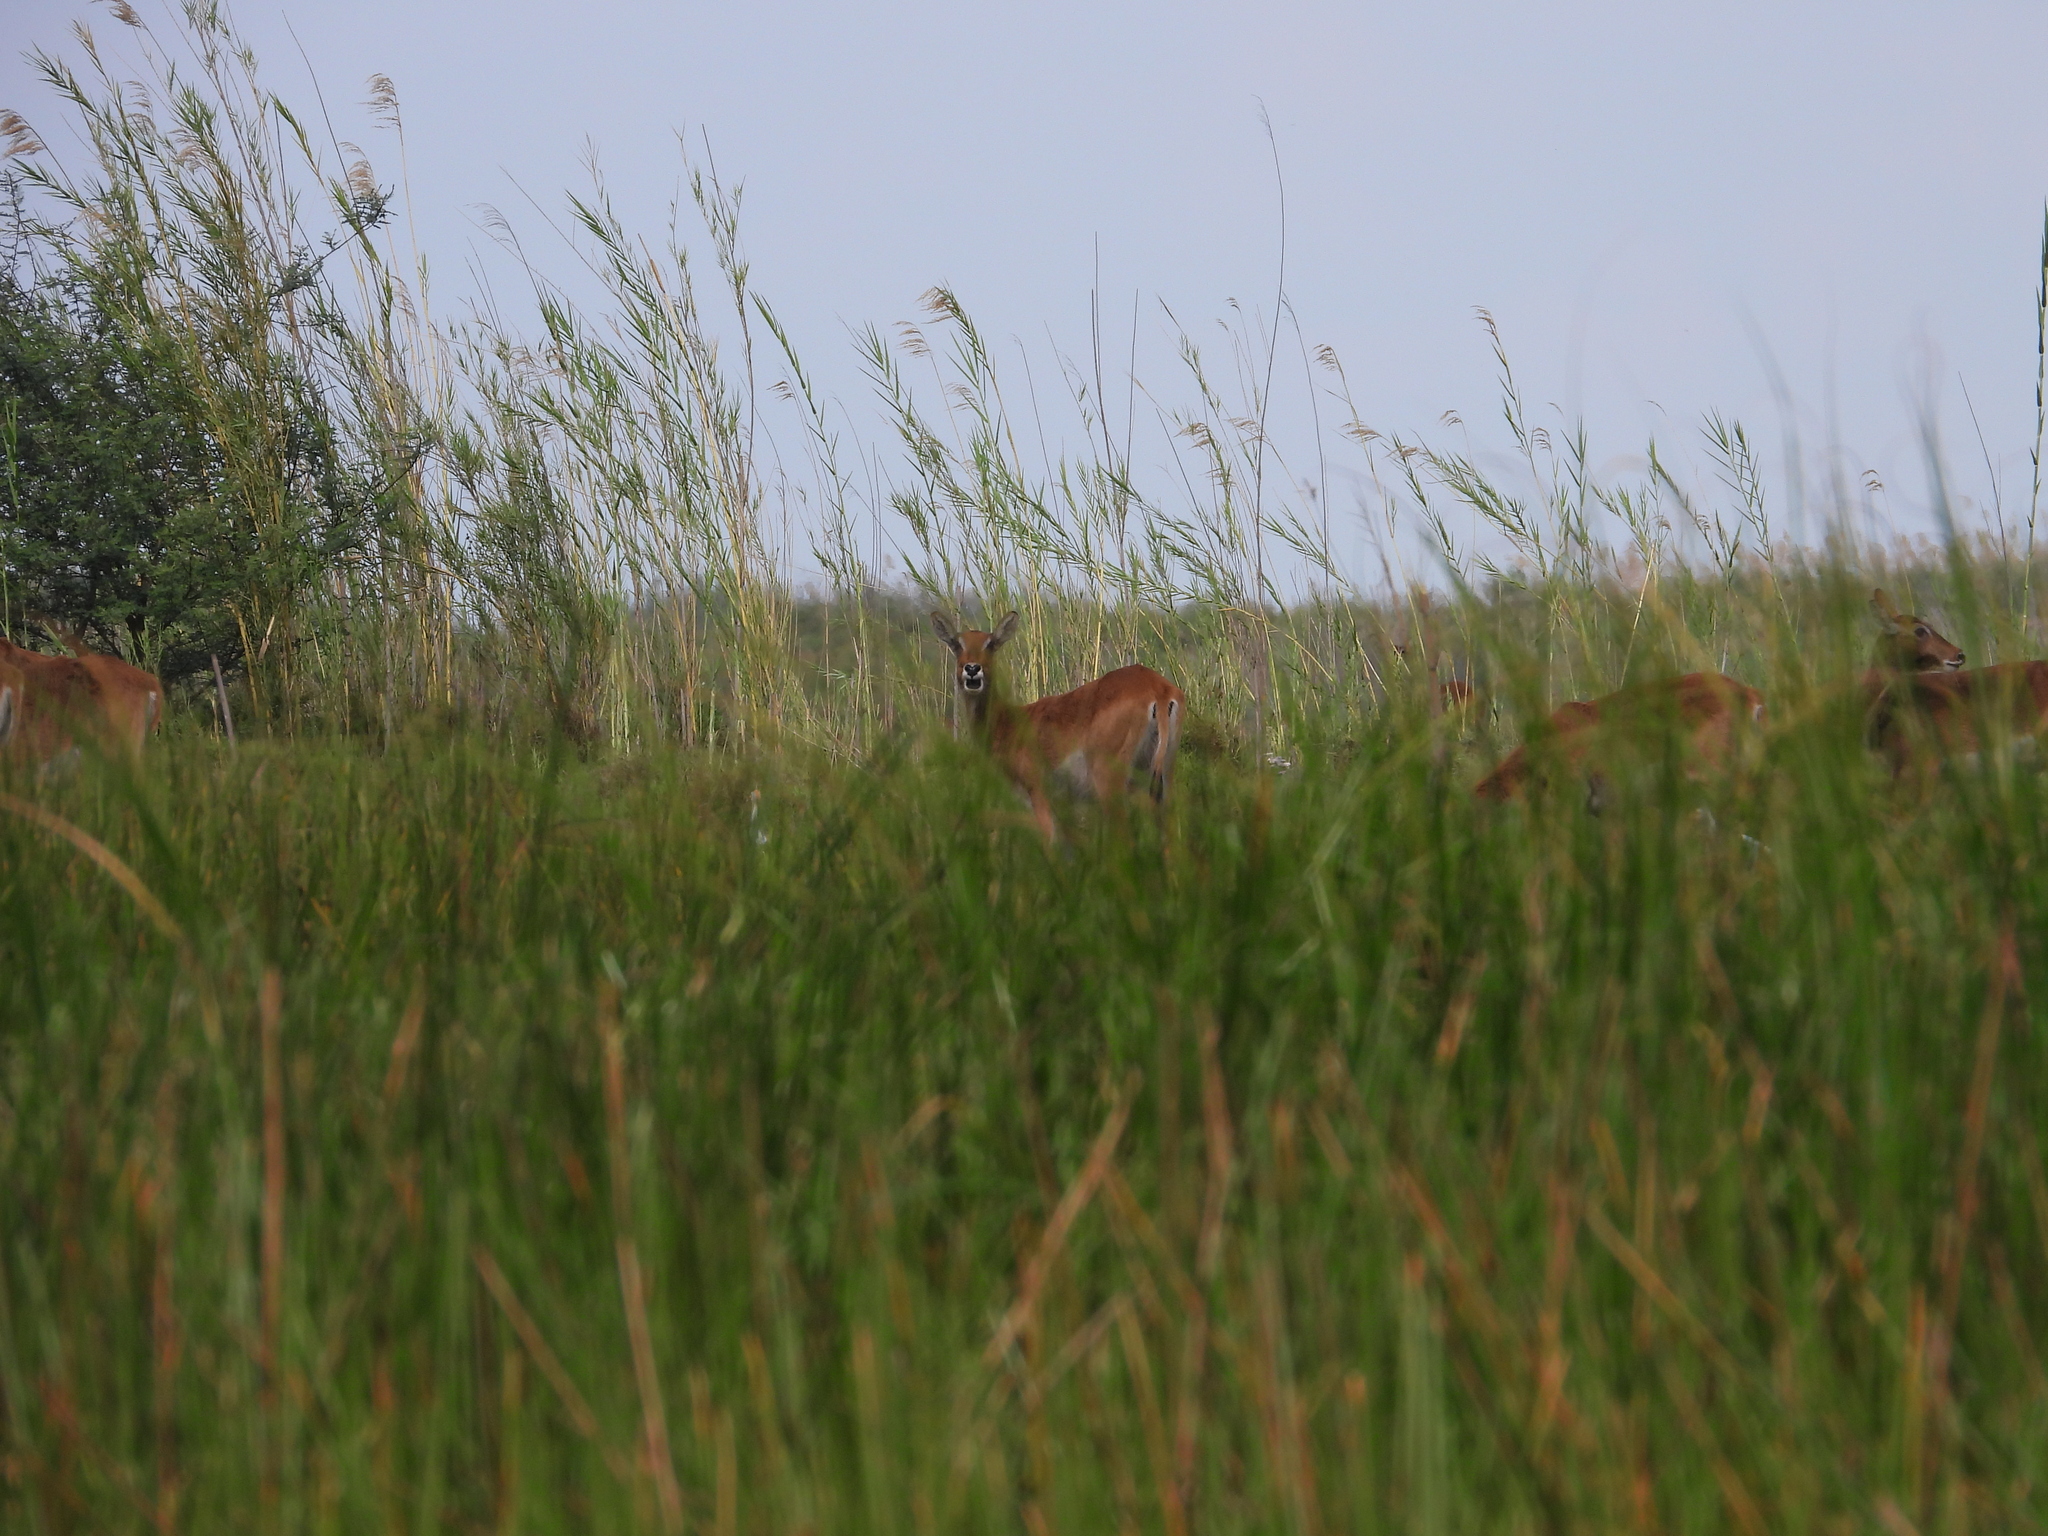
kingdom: Animalia
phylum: Chordata
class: Mammalia
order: Artiodactyla
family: Bovidae
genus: Kobus
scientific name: Kobus leche
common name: Lechwe
